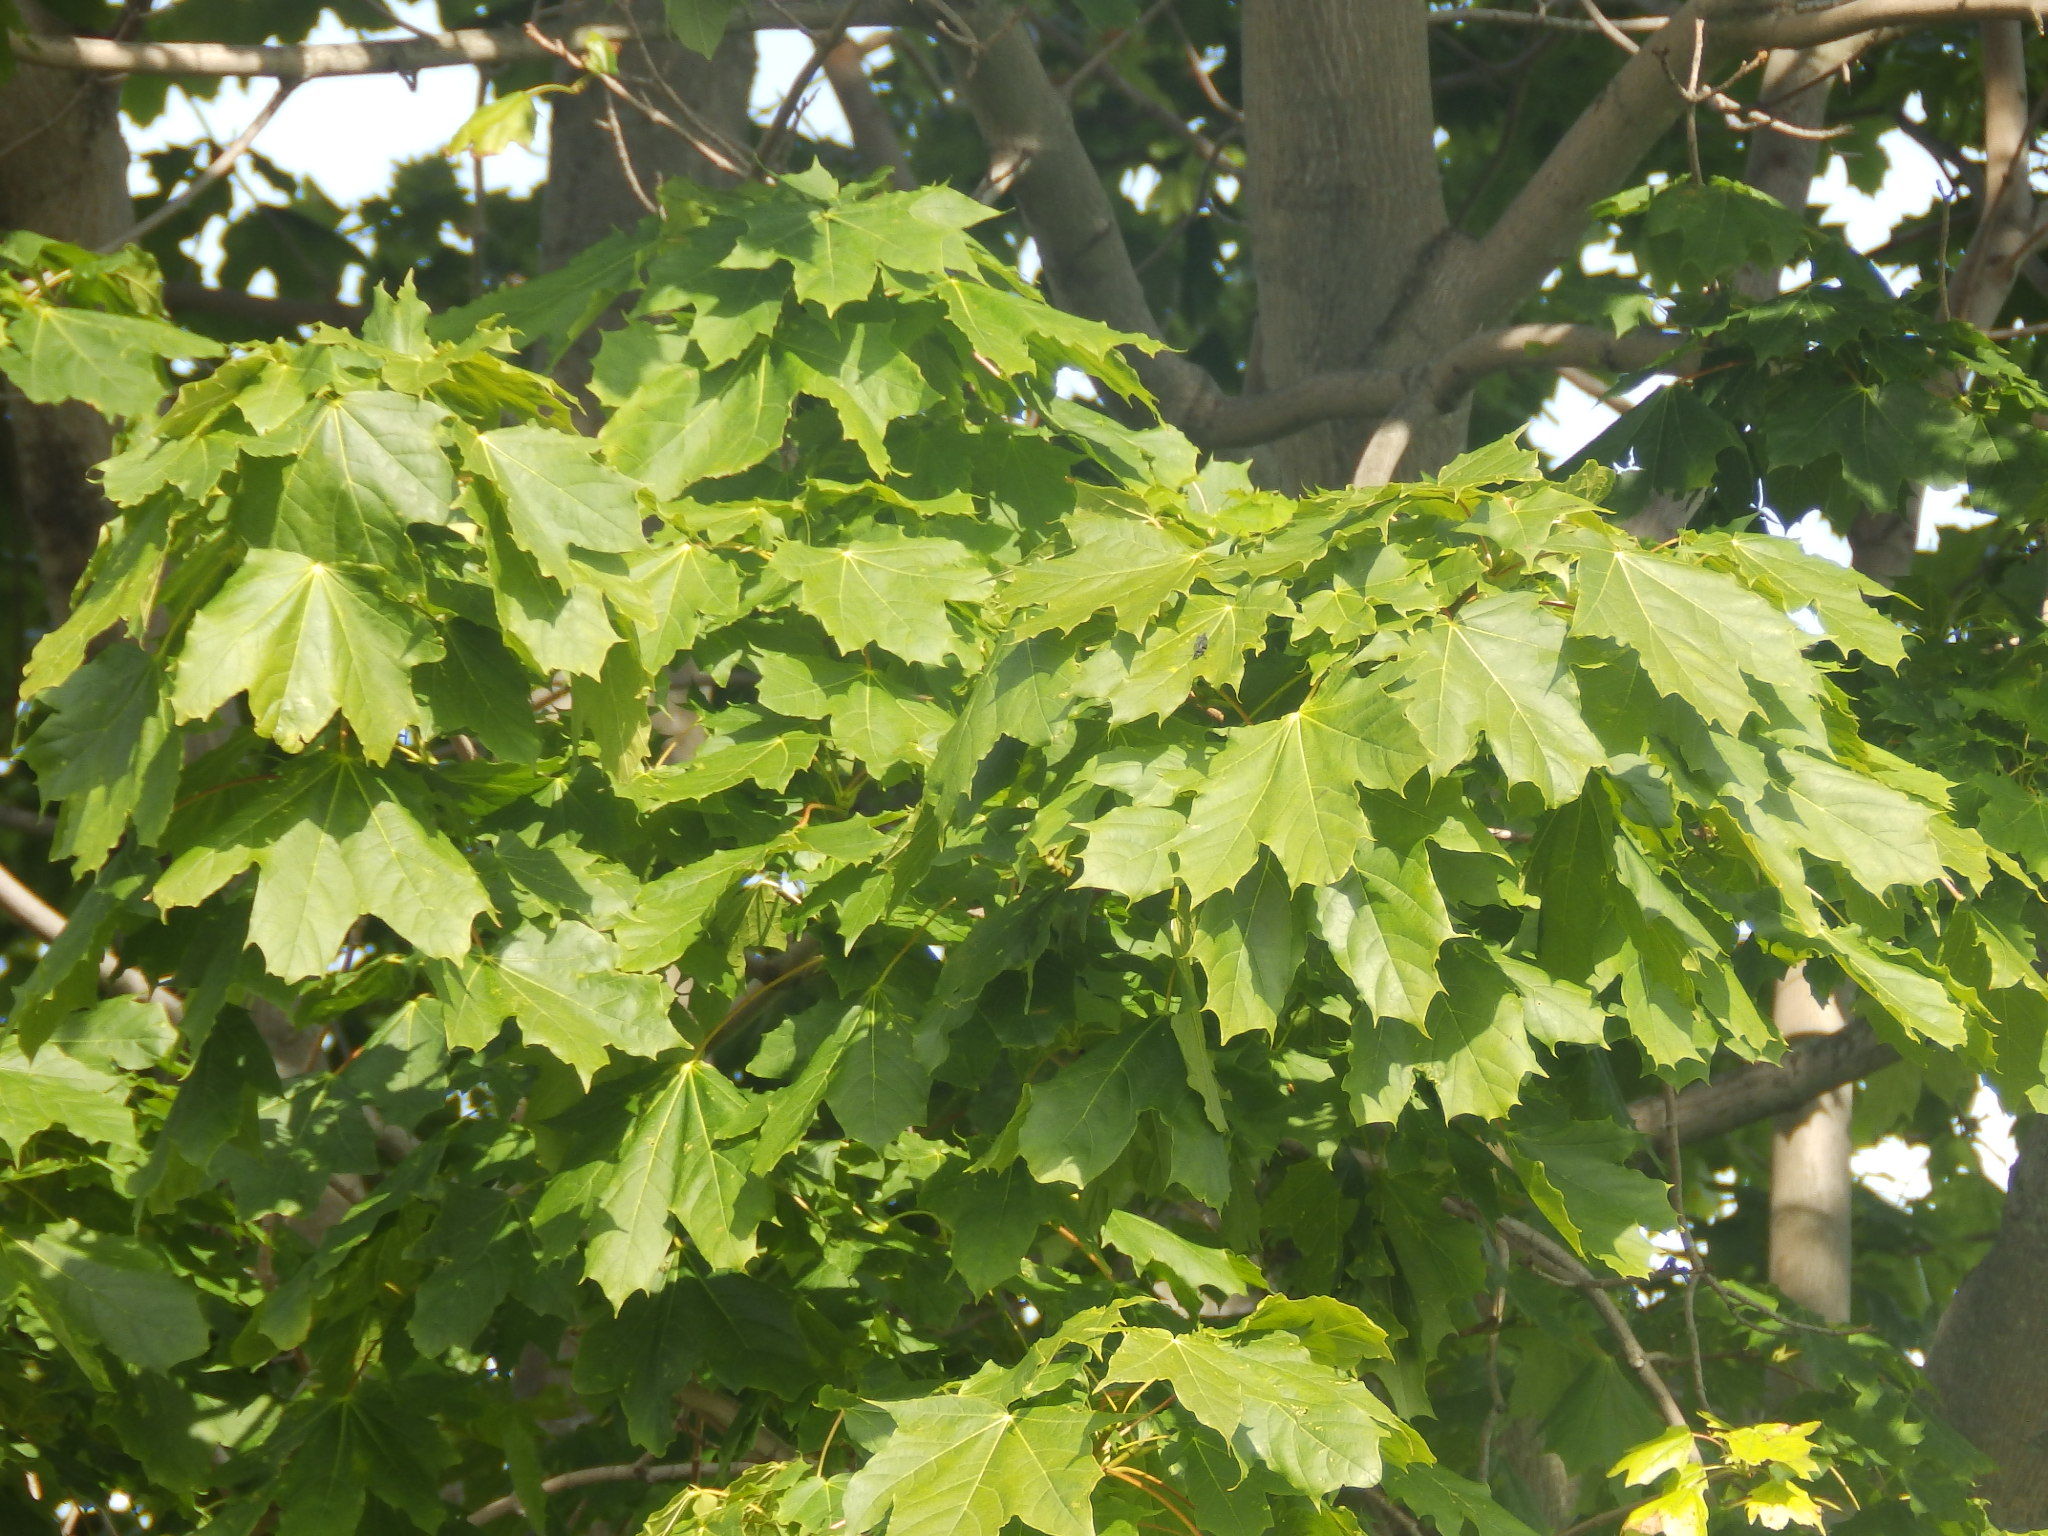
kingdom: Plantae
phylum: Tracheophyta
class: Magnoliopsida
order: Sapindales
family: Sapindaceae
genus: Acer
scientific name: Acer platanoides
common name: Norway maple
